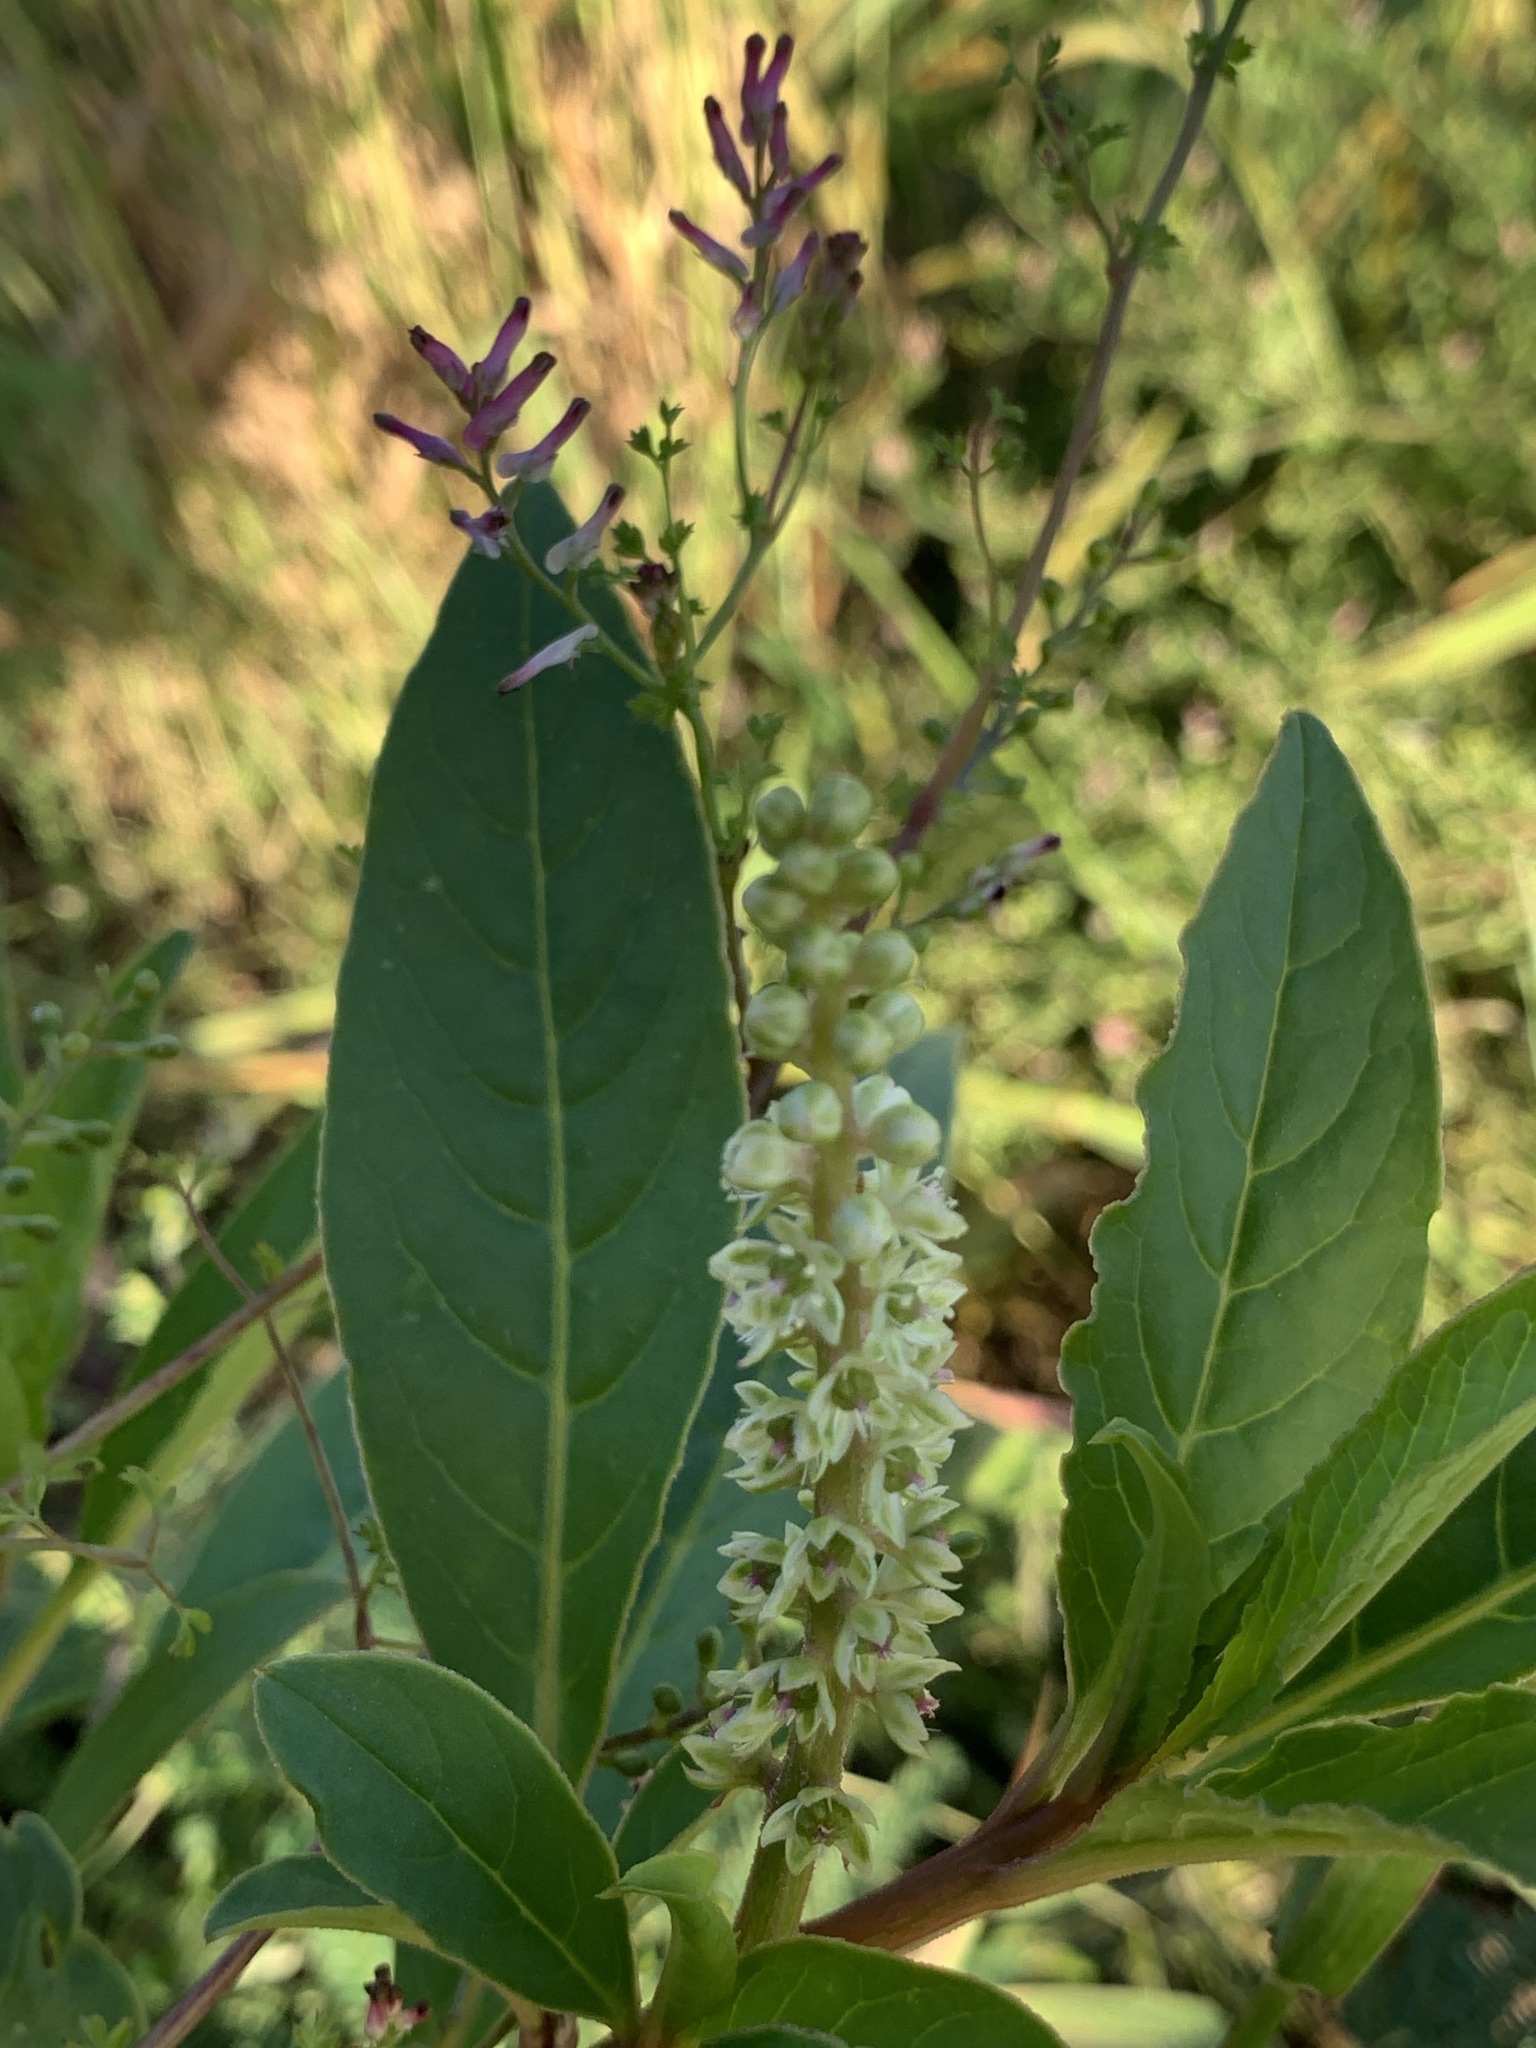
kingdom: Plantae
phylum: Tracheophyta
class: Magnoliopsida
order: Caryophyllales
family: Phytolaccaceae
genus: Phytolacca
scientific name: Phytolacca icosandra
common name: Button pokeweed
